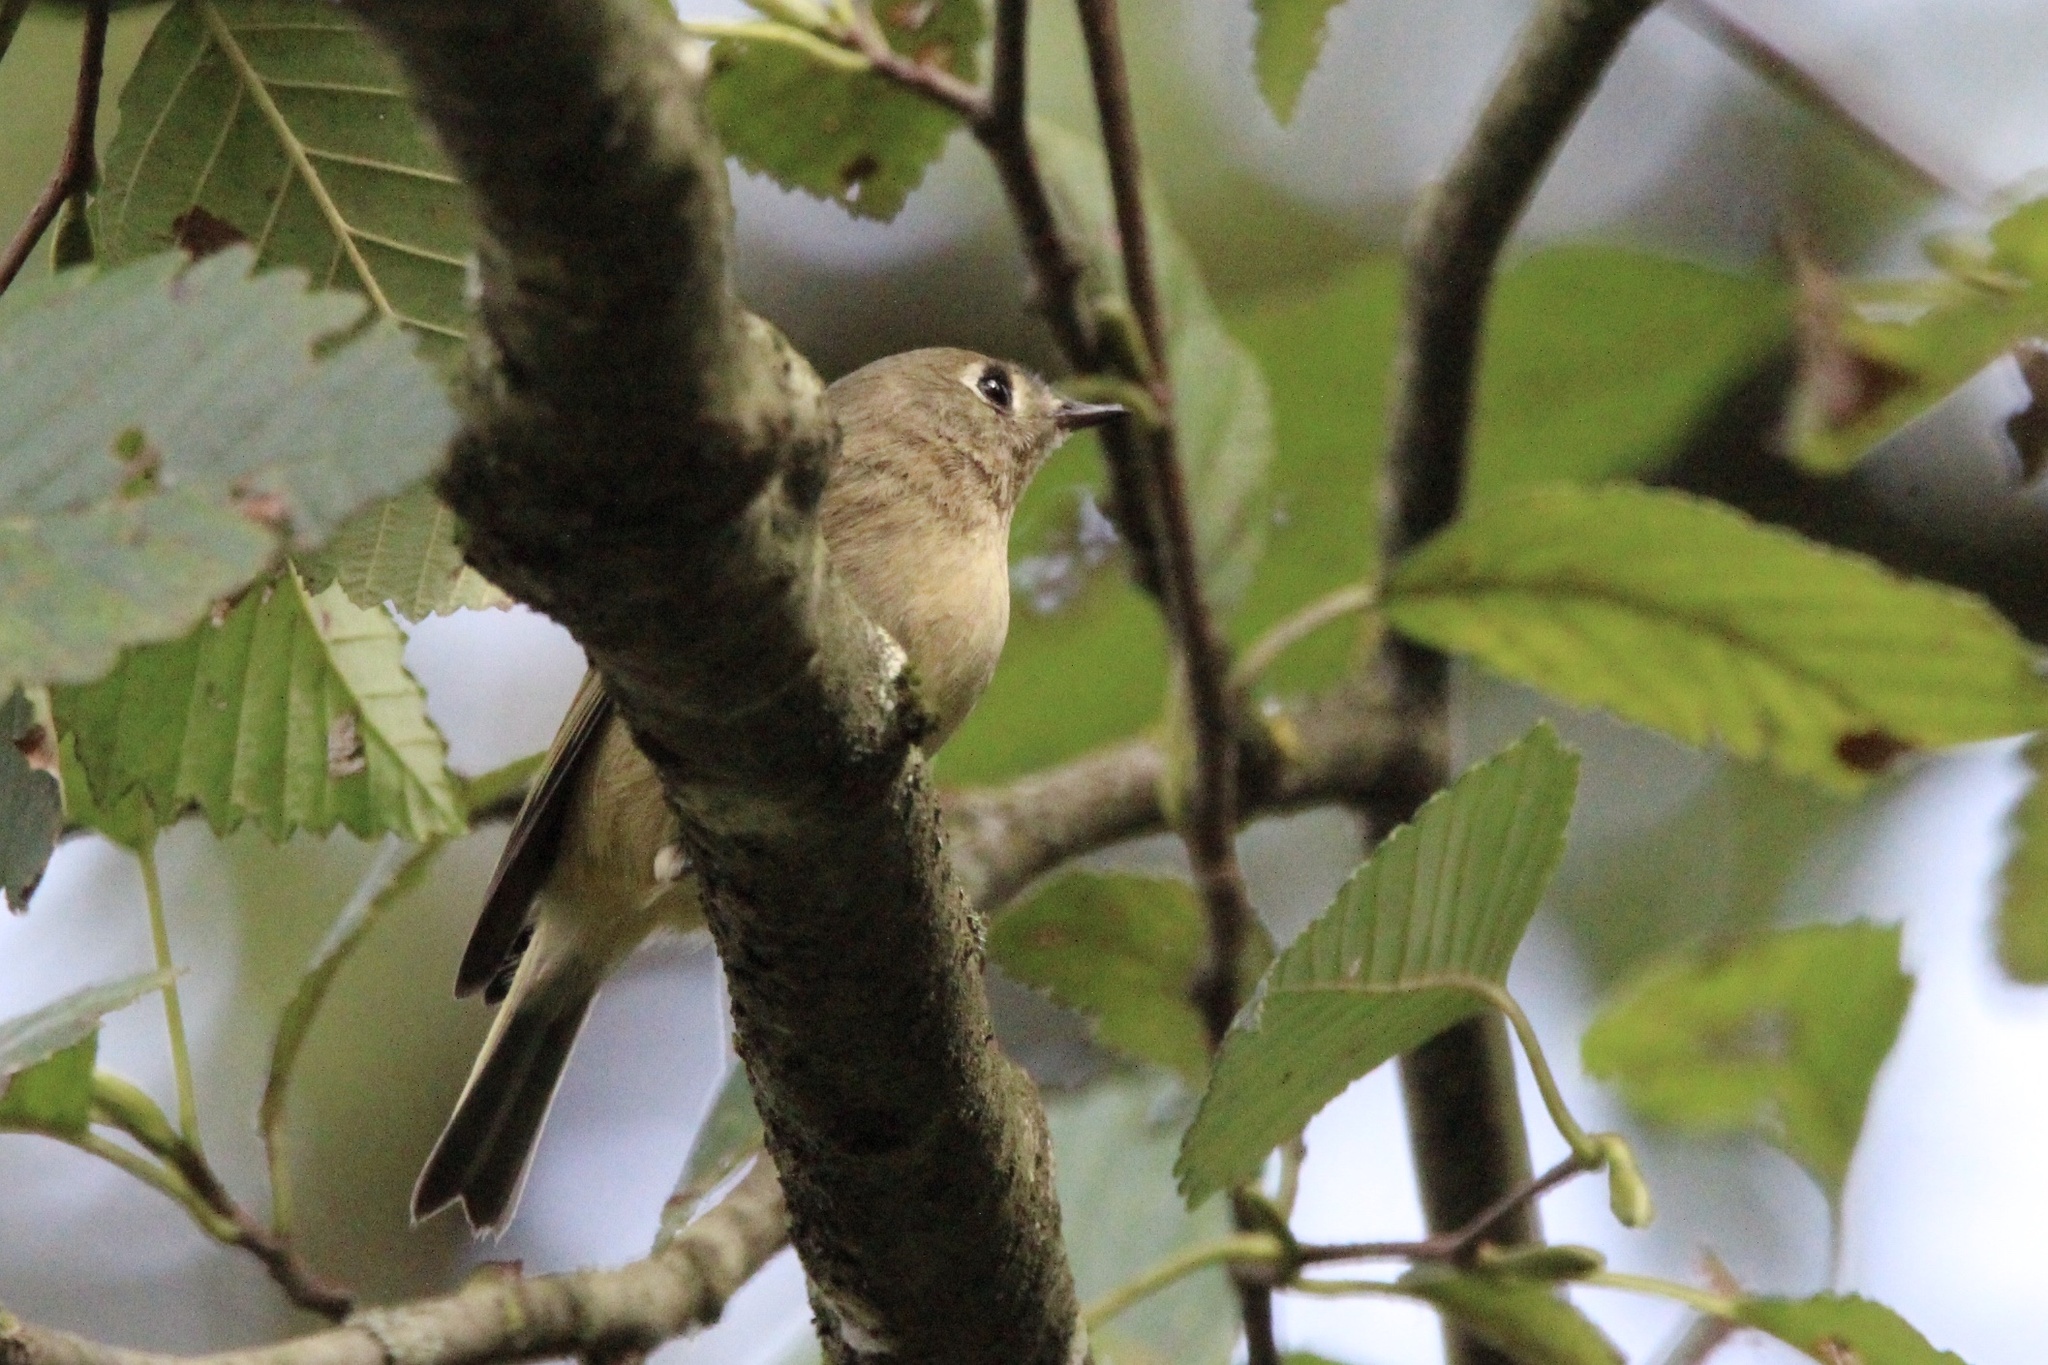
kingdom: Animalia
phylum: Chordata
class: Aves
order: Passeriformes
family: Regulidae
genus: Regulus
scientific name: Regulus calendula
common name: Ruby-crowned kinglet
